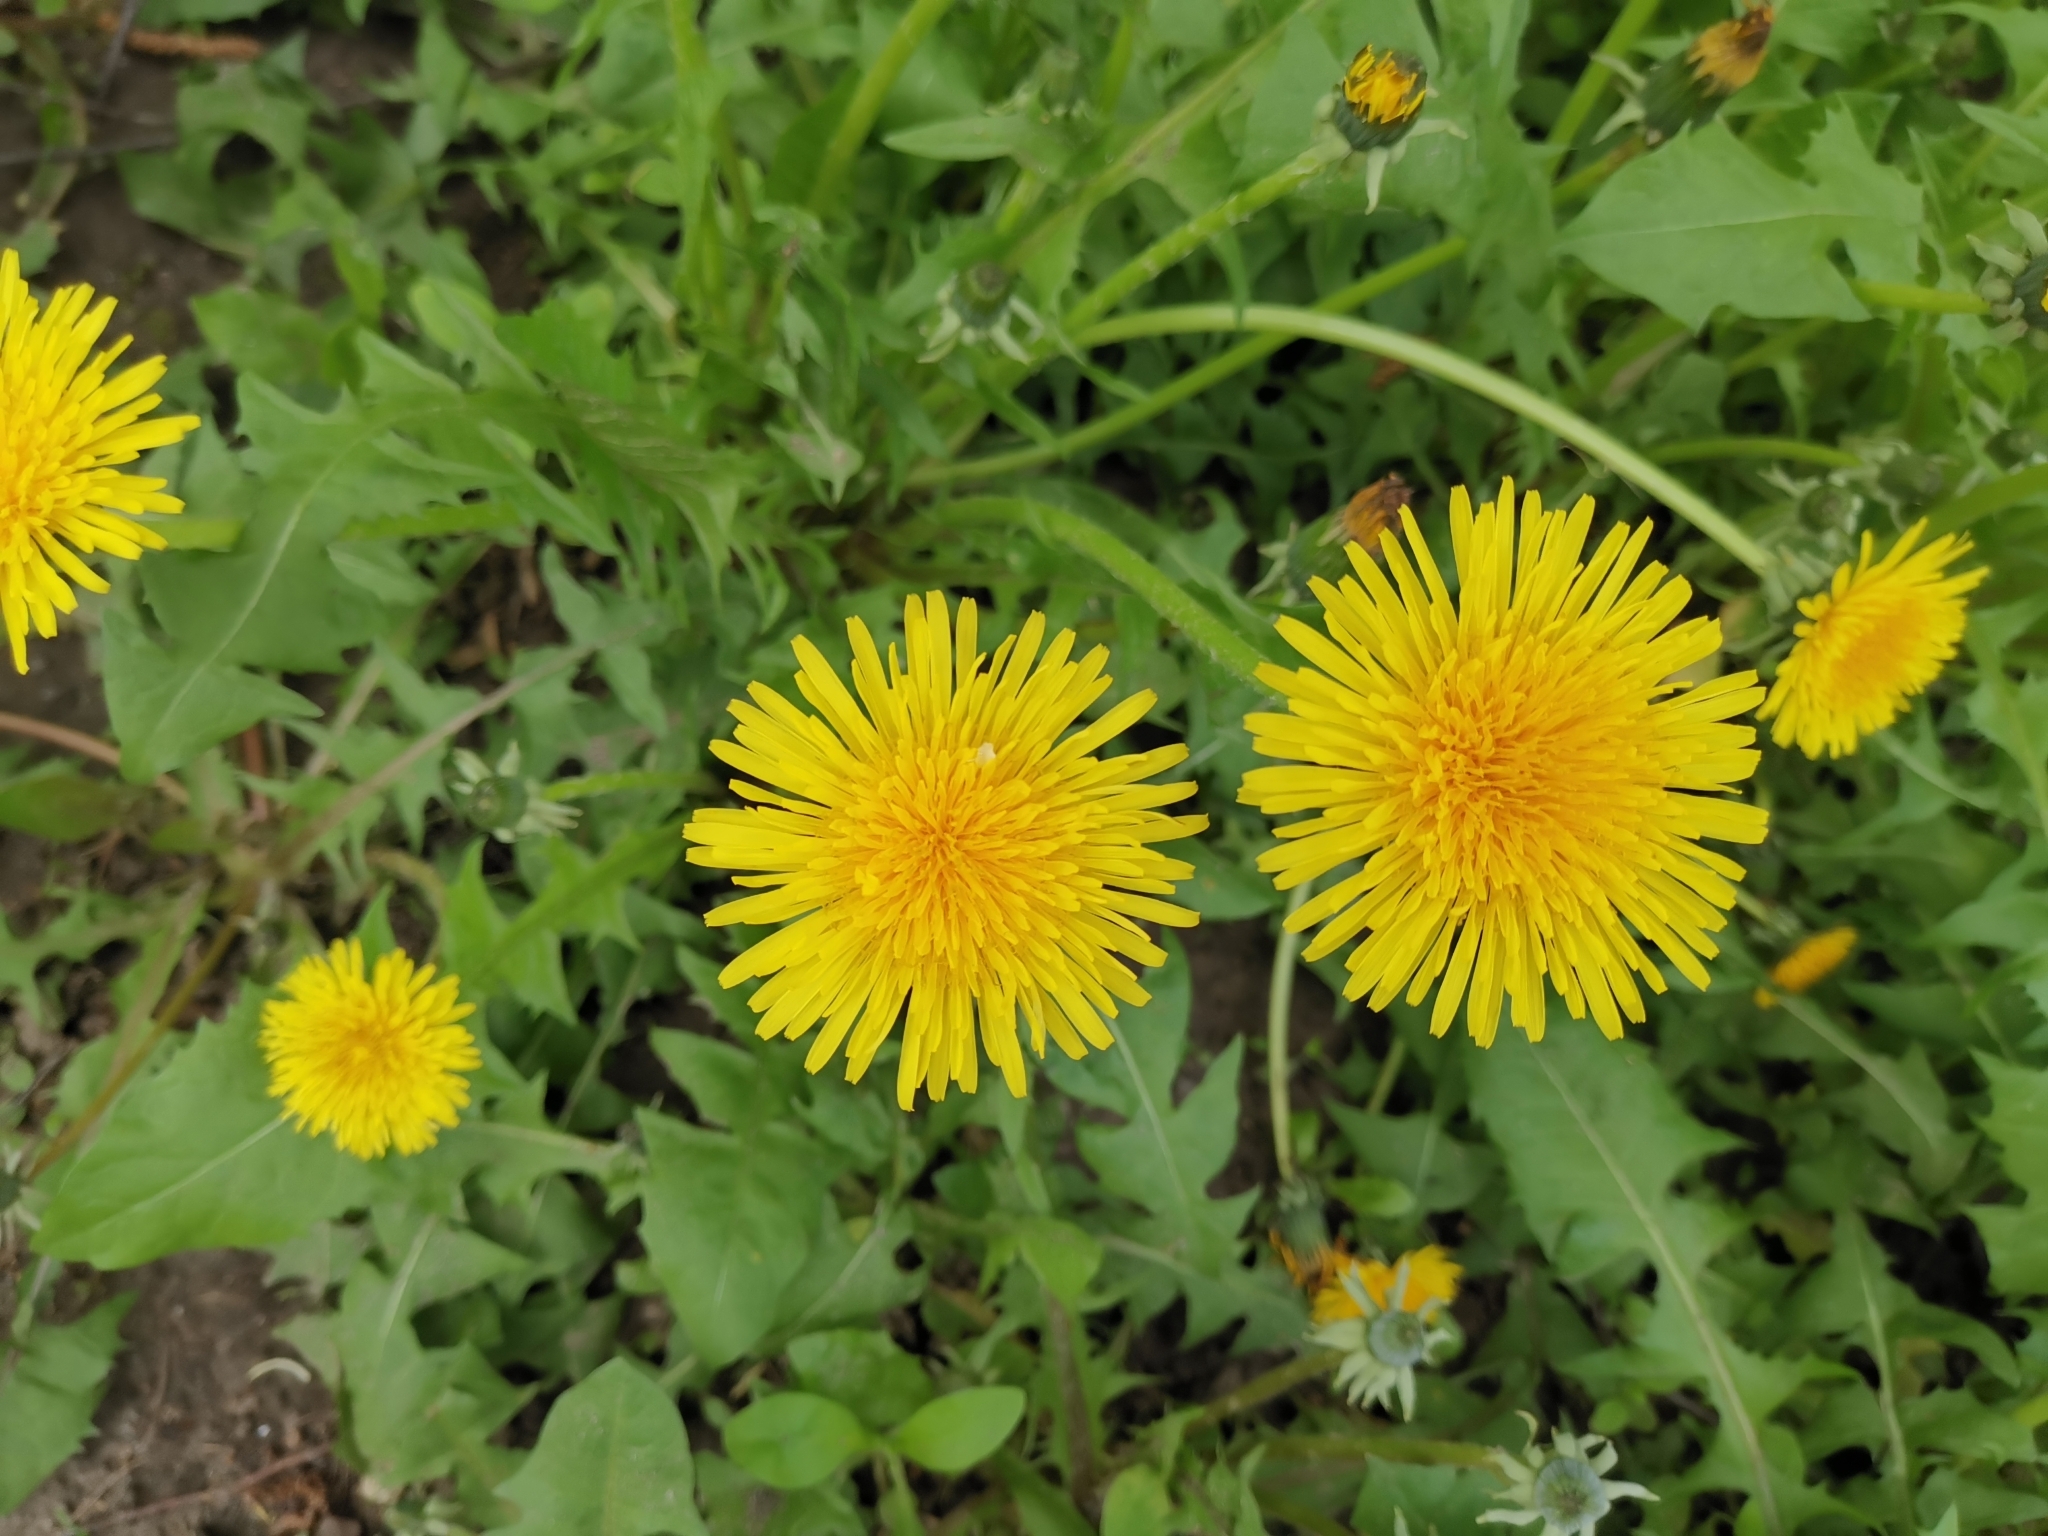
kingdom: Plantae
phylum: Tracheophyta
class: Magnoliopsida
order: Asterales
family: Asteraceae
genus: Taraxacum
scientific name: Taraxacum officinale
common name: Common dandelion
